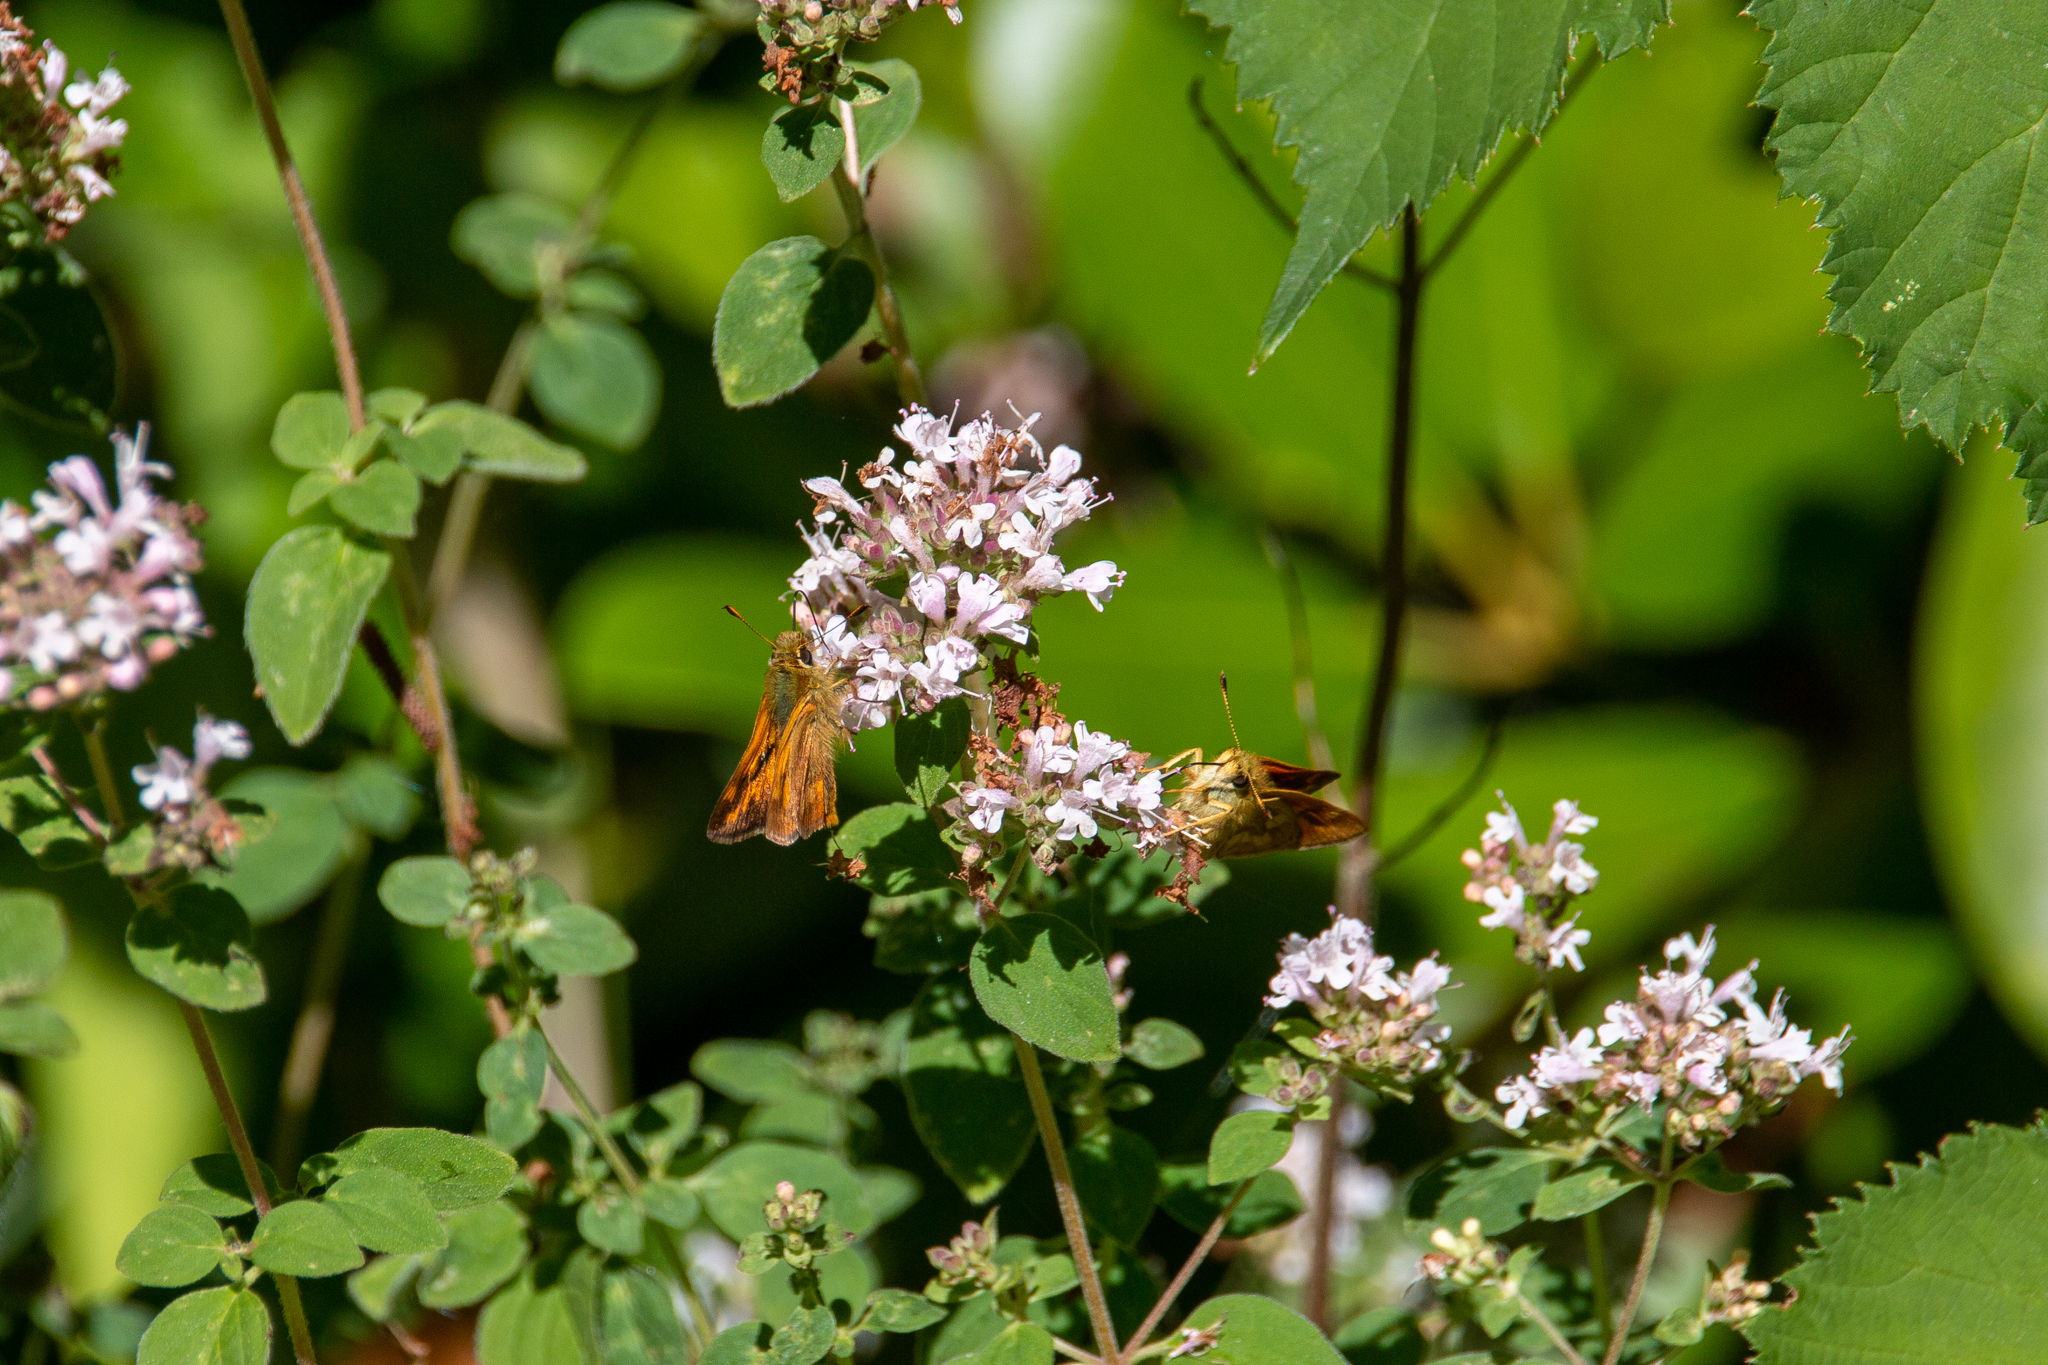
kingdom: Animalia
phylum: Arthropoda
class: Insecta
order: Lepidoptera
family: Hesperiidae
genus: Ochlodes
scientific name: Ochlodes sylvanoides
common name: Woodland skipper
